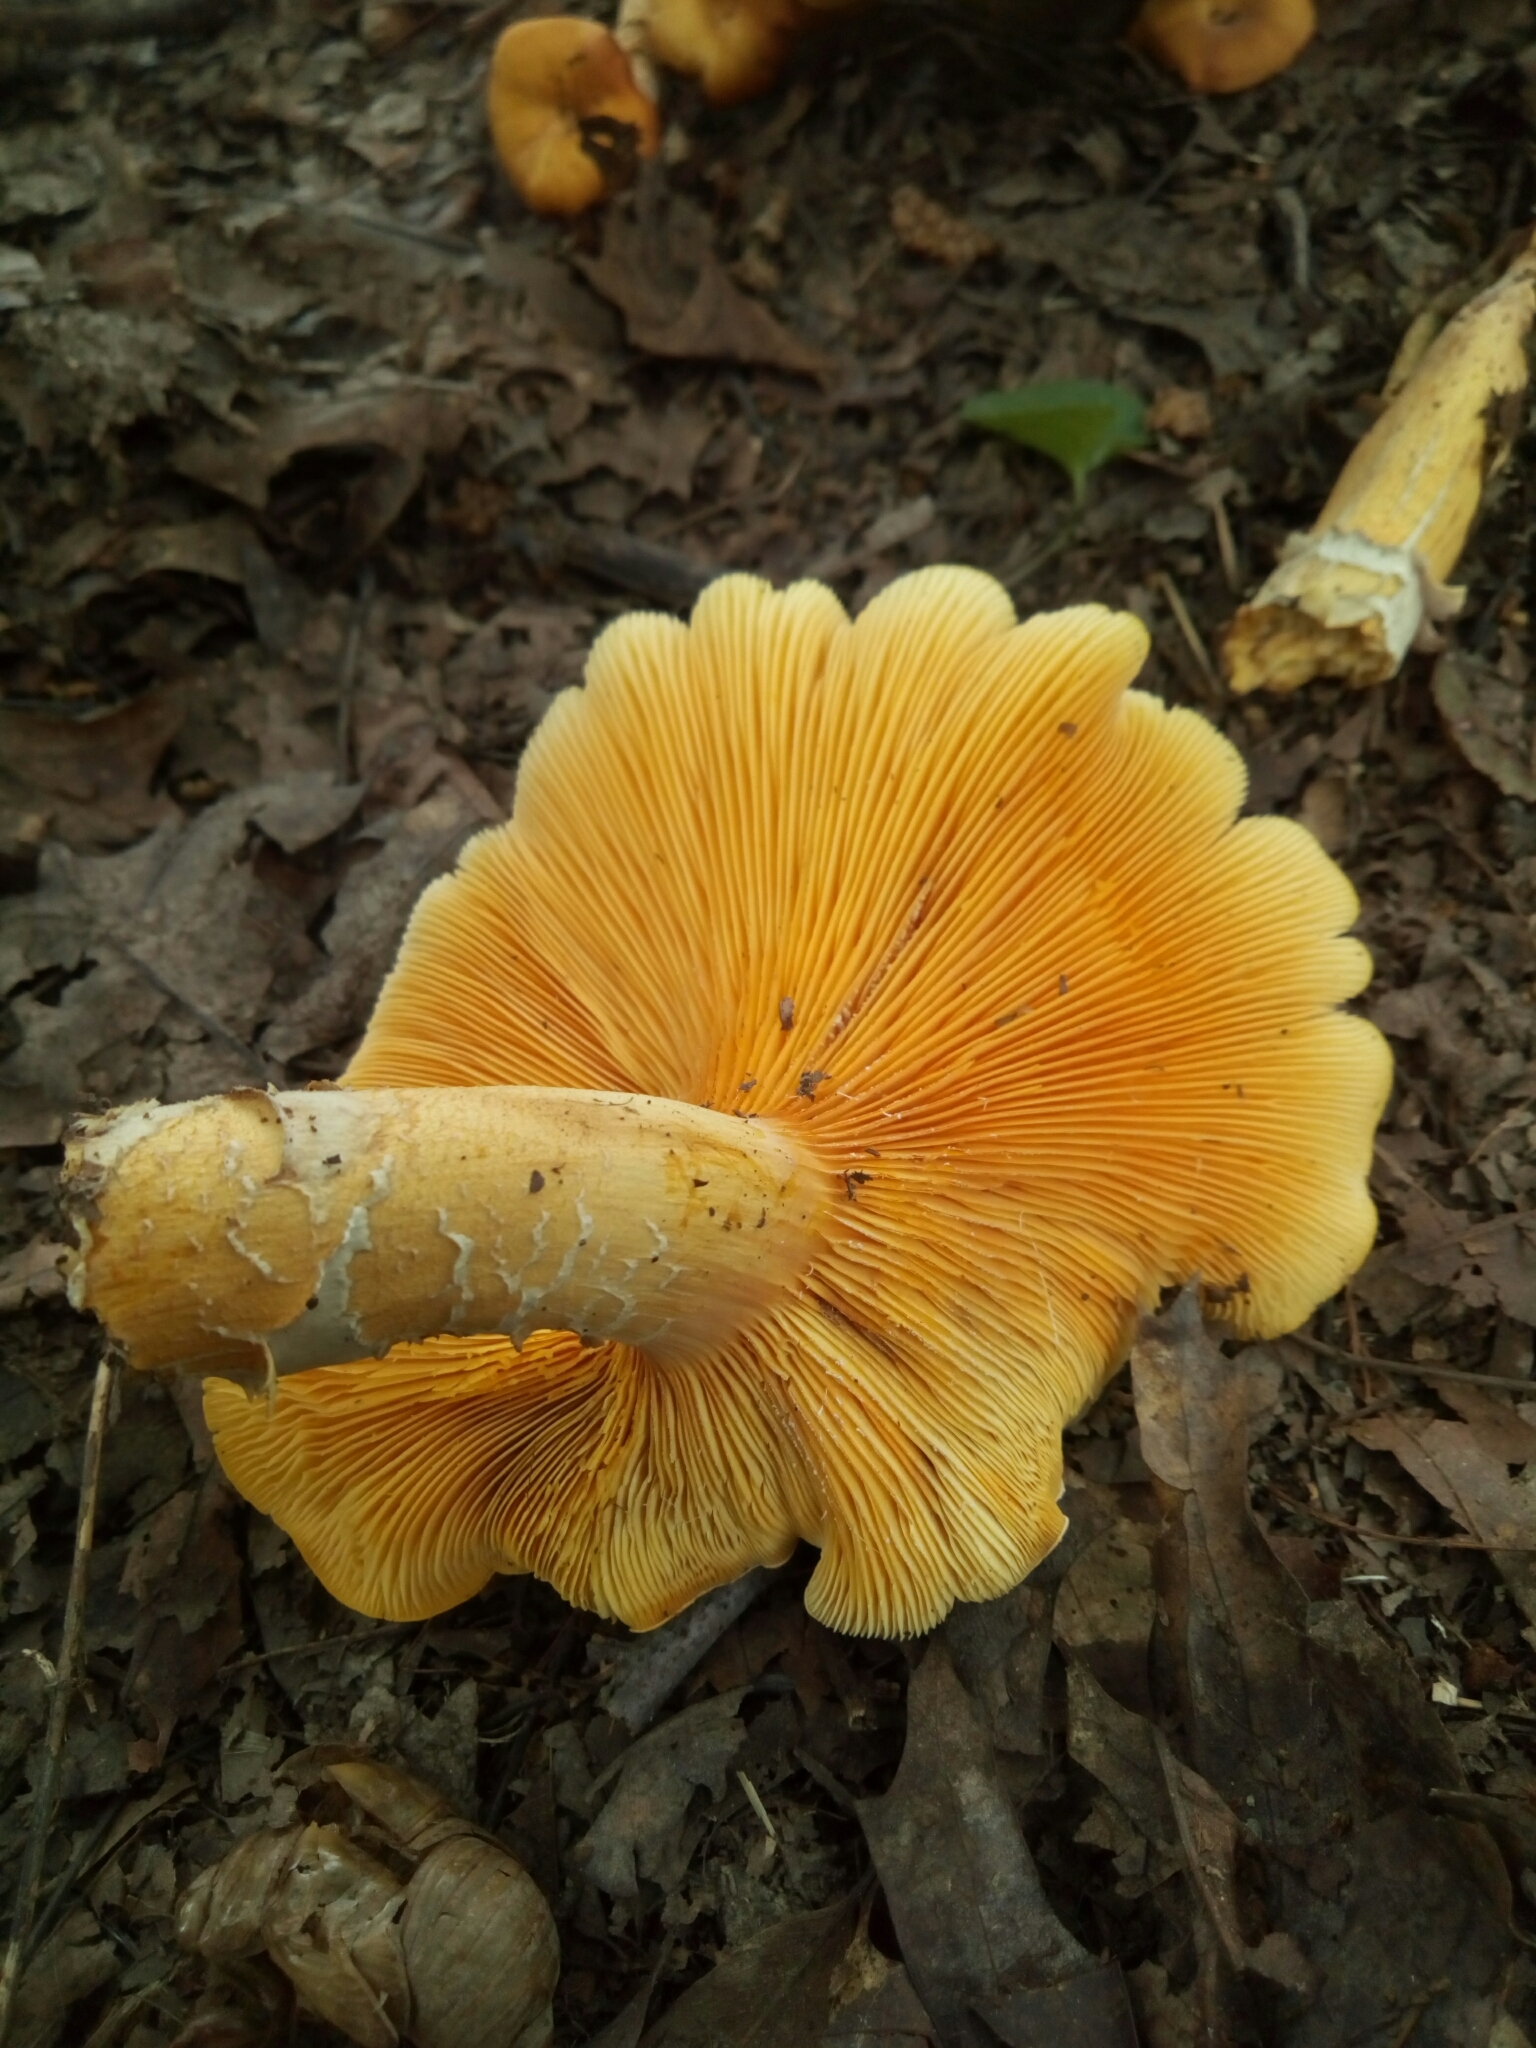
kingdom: Fungi
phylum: Basidiomycota
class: Agaricomycetes
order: Agaricales
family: Omphalotaceae
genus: Omphalotus
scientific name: Omphalotus illudens
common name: Jack o lantern
